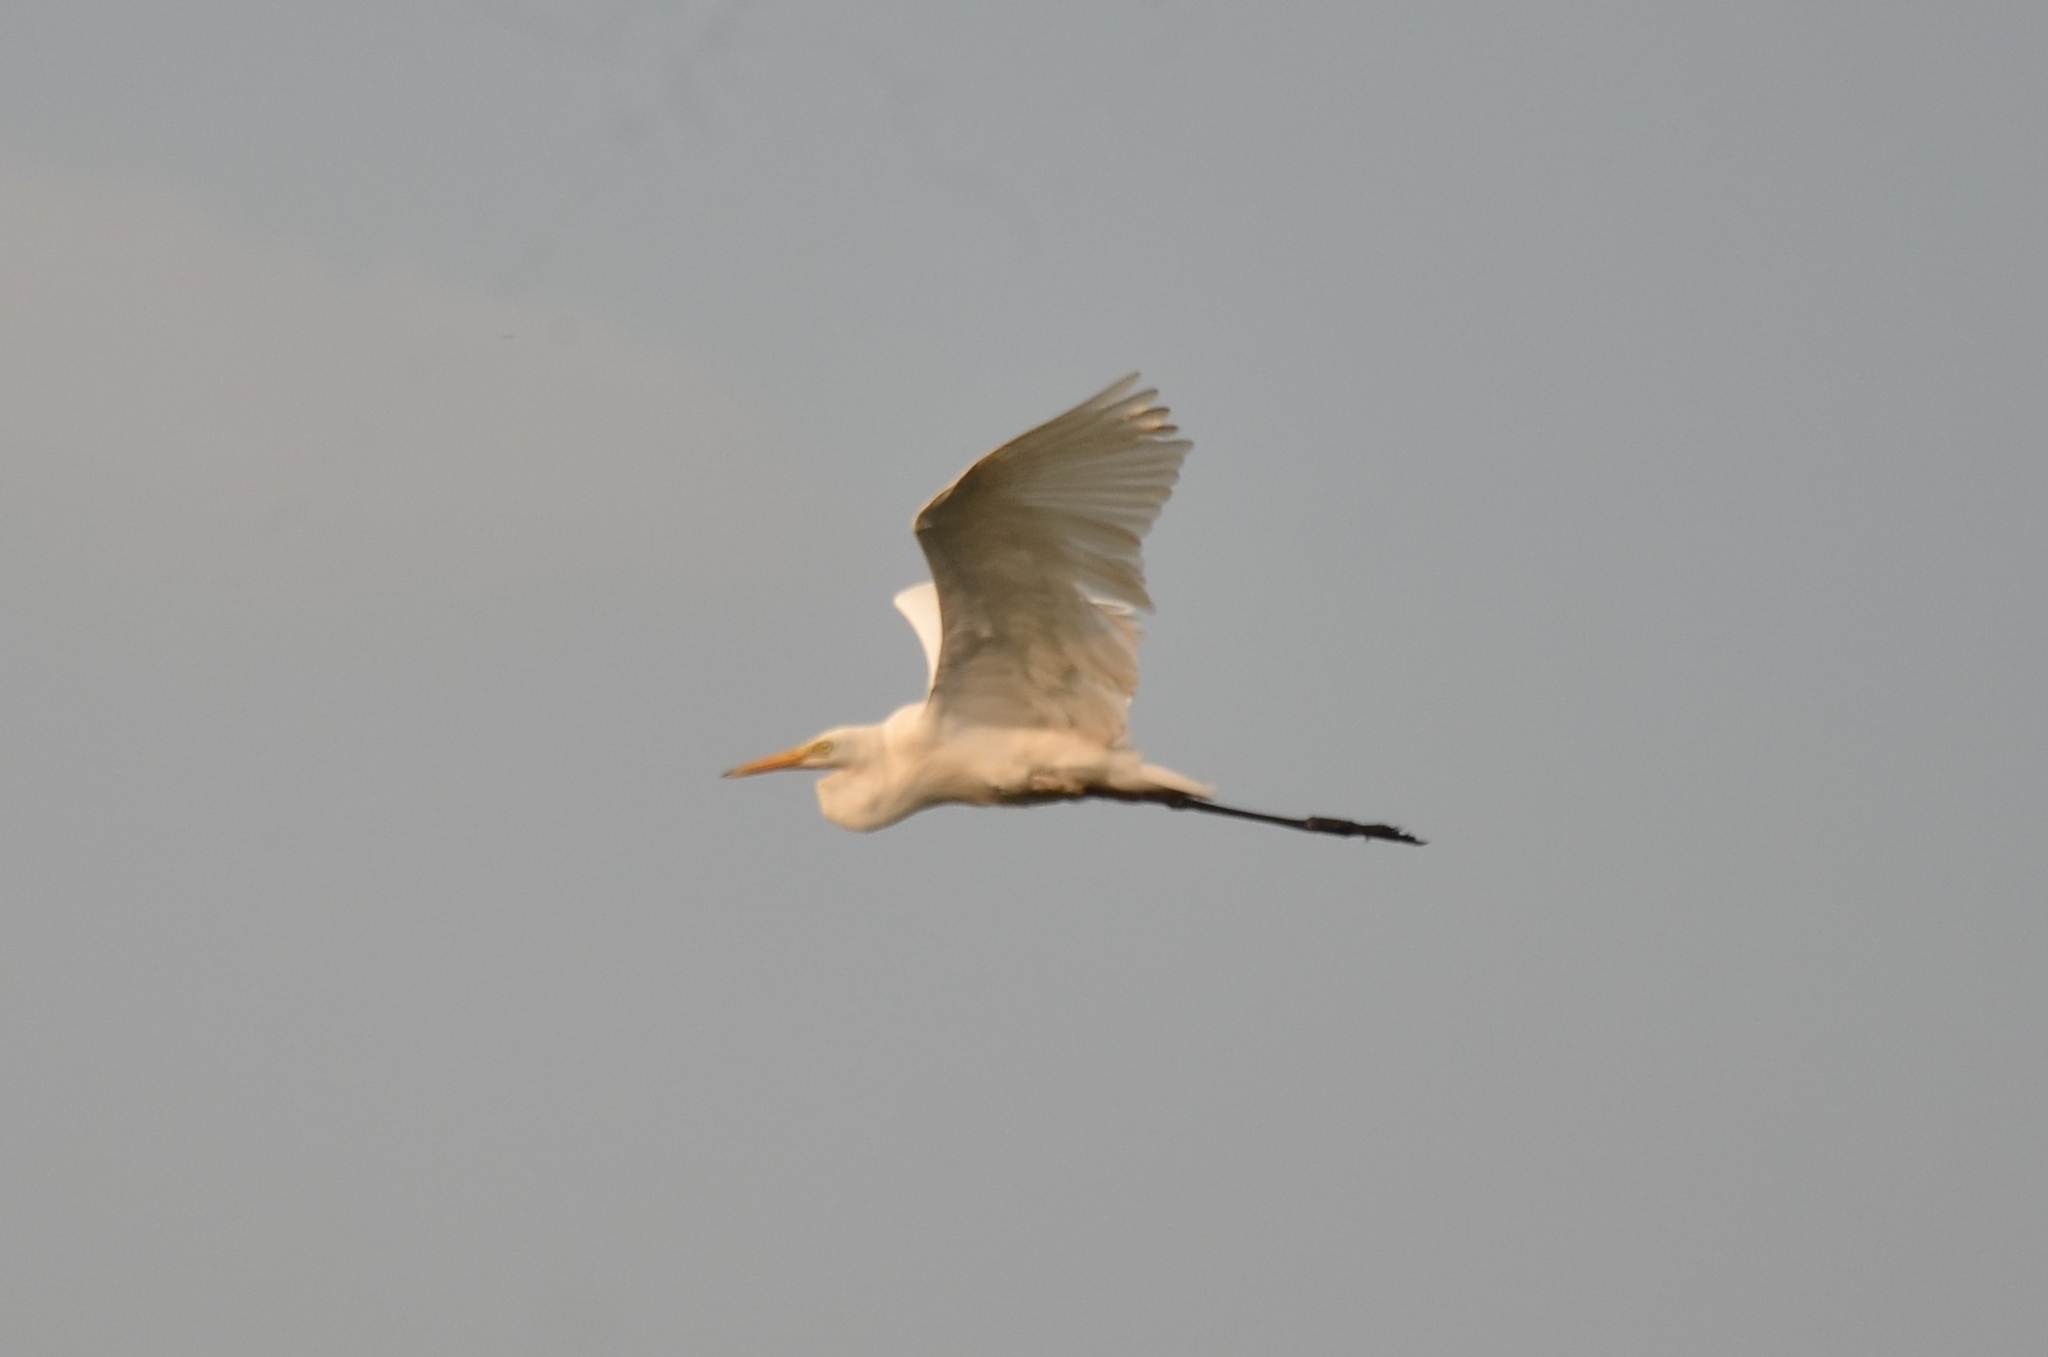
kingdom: Animalia
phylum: Chordata
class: Aves
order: Pelecaniformes
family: Ardeidae
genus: Egretta
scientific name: Egretta intermedia
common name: Intermediate egret
